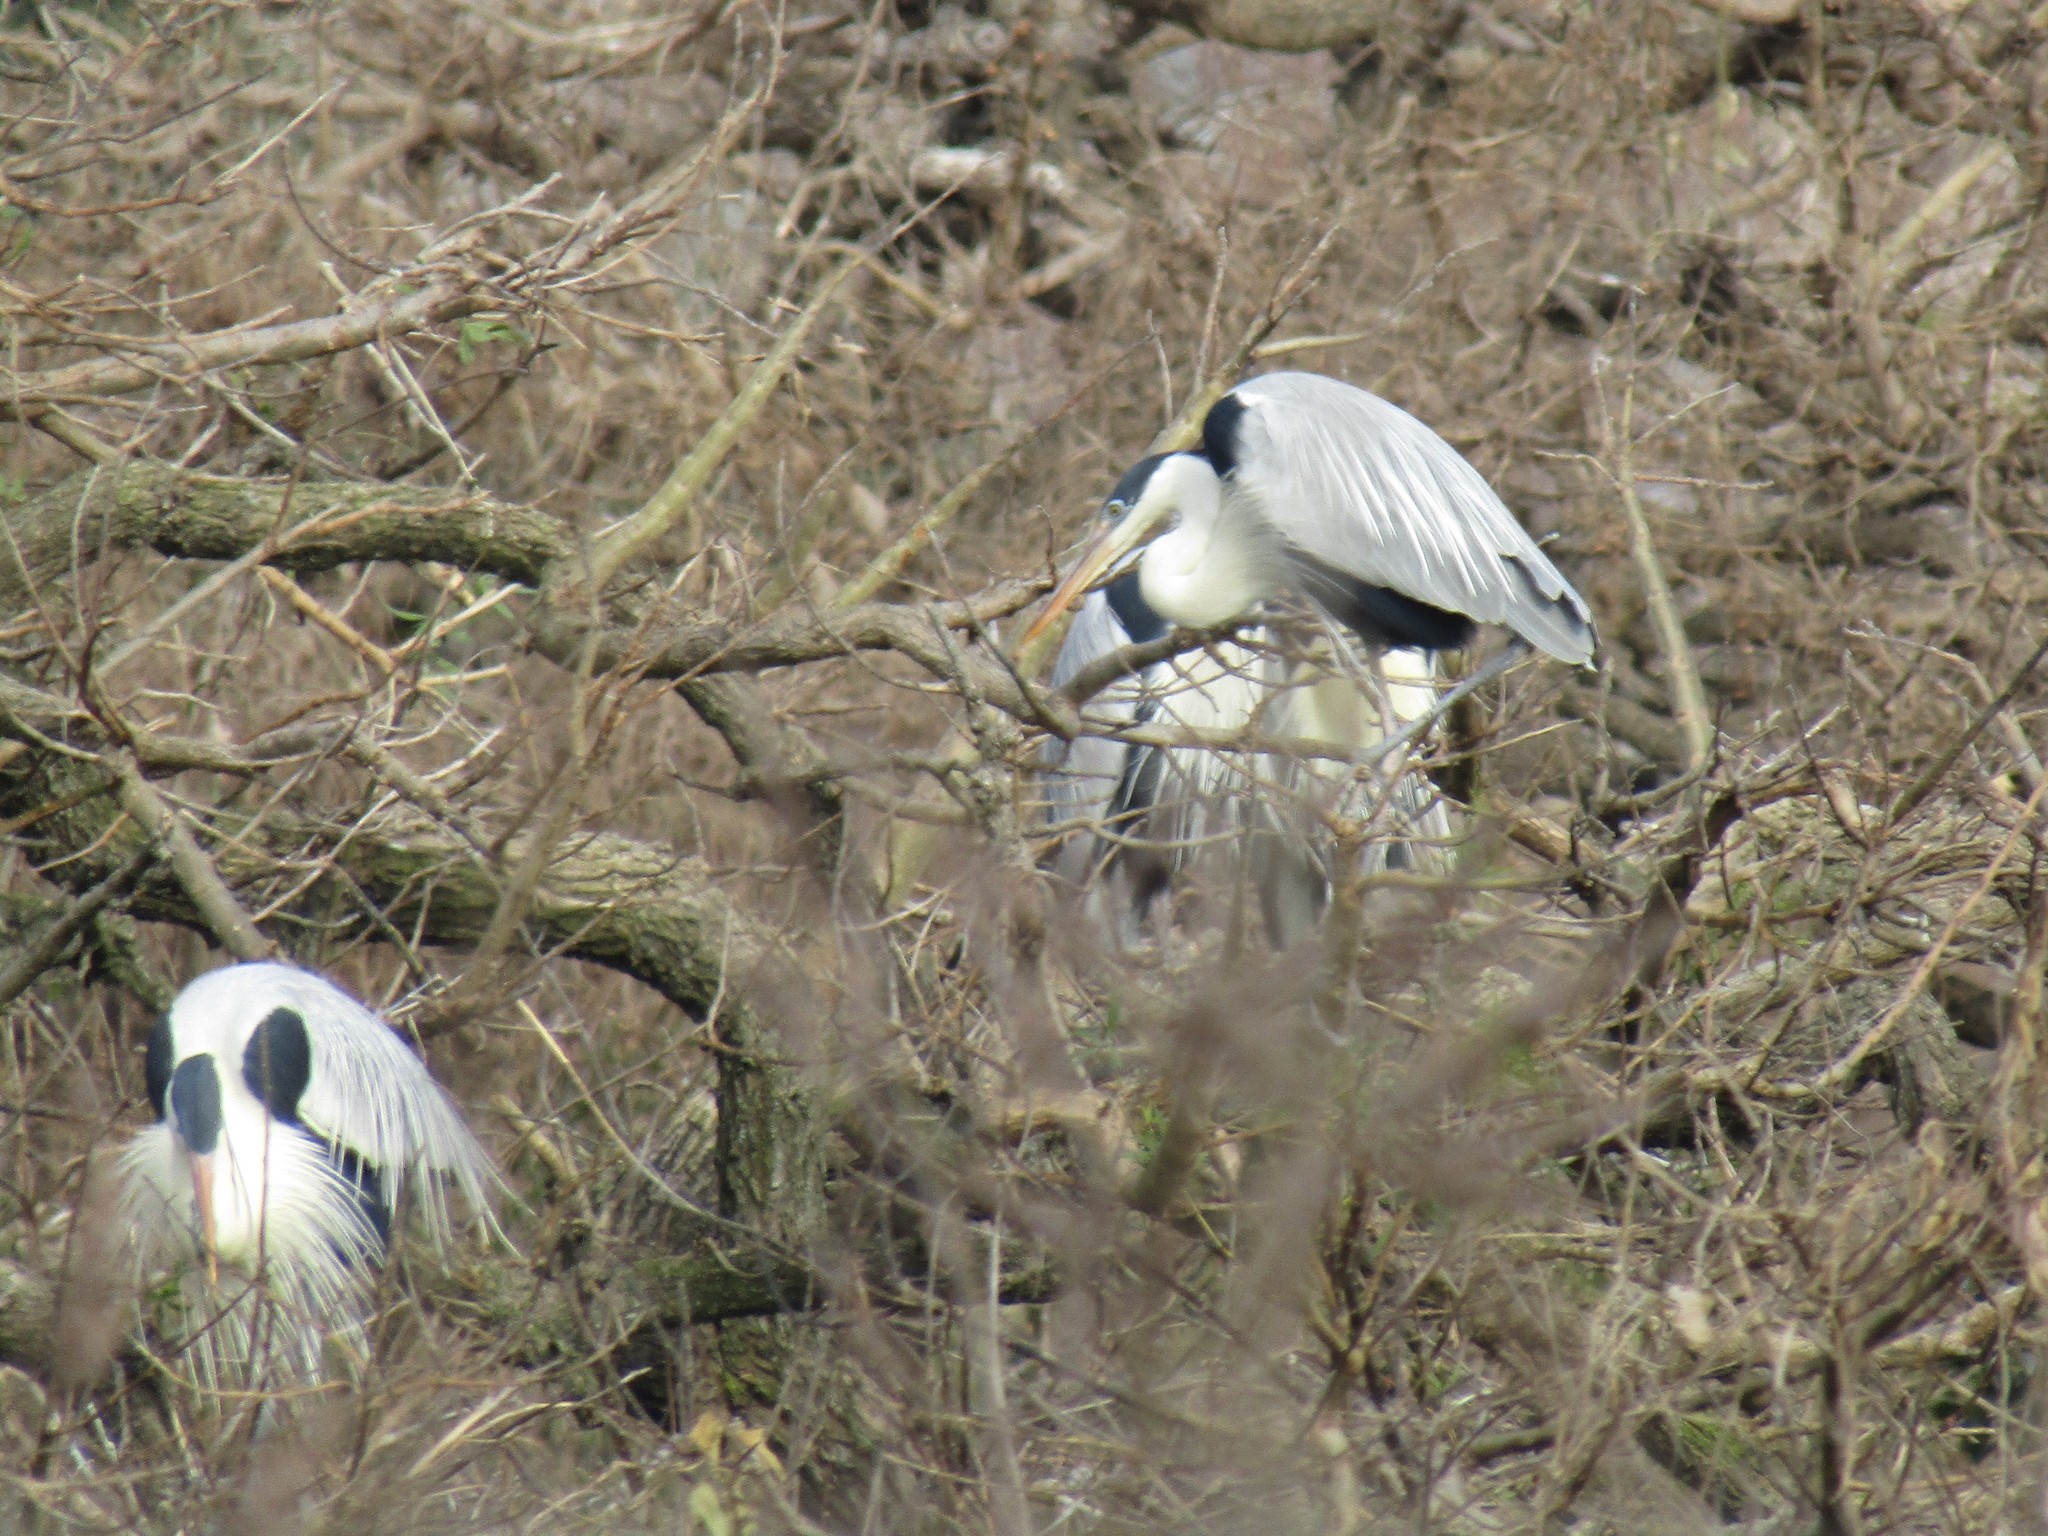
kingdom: Animalia
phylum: Chordata
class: Aves
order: Pelecaniformes
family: Ardeidae
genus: Ardea
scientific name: Ardea cocoi
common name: Cocoi heron
